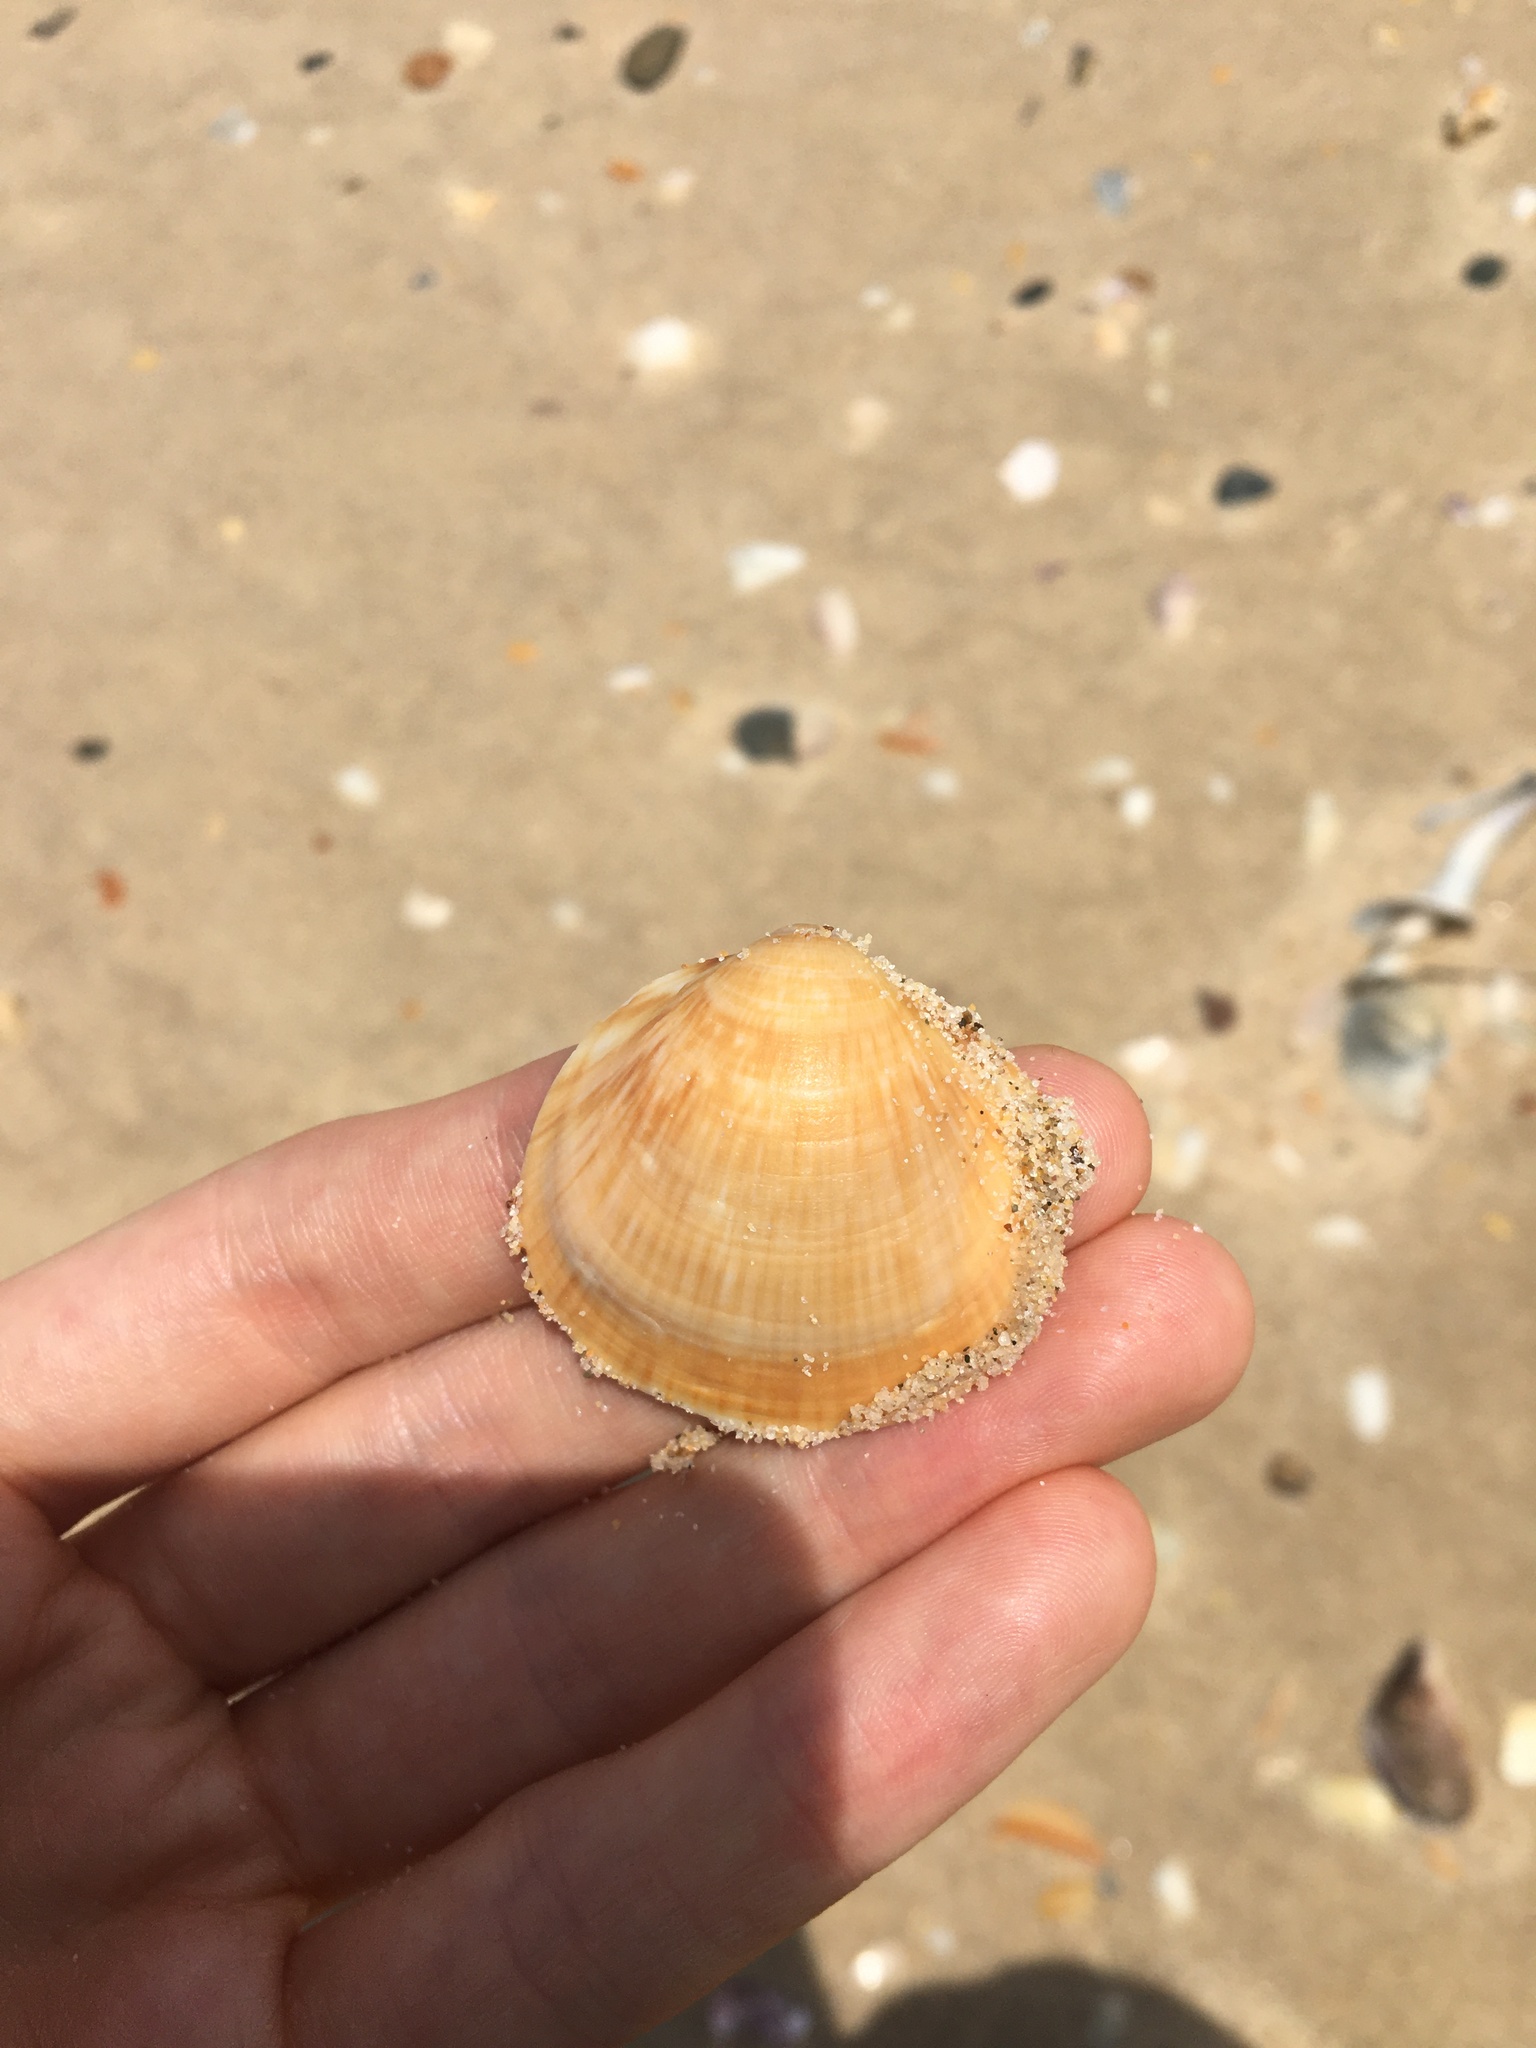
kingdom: Animalia
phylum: Mollusca
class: Bivalvia
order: Arcida
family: Glycymerididae
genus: Glycymeris
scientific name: Glycymeris grayana
